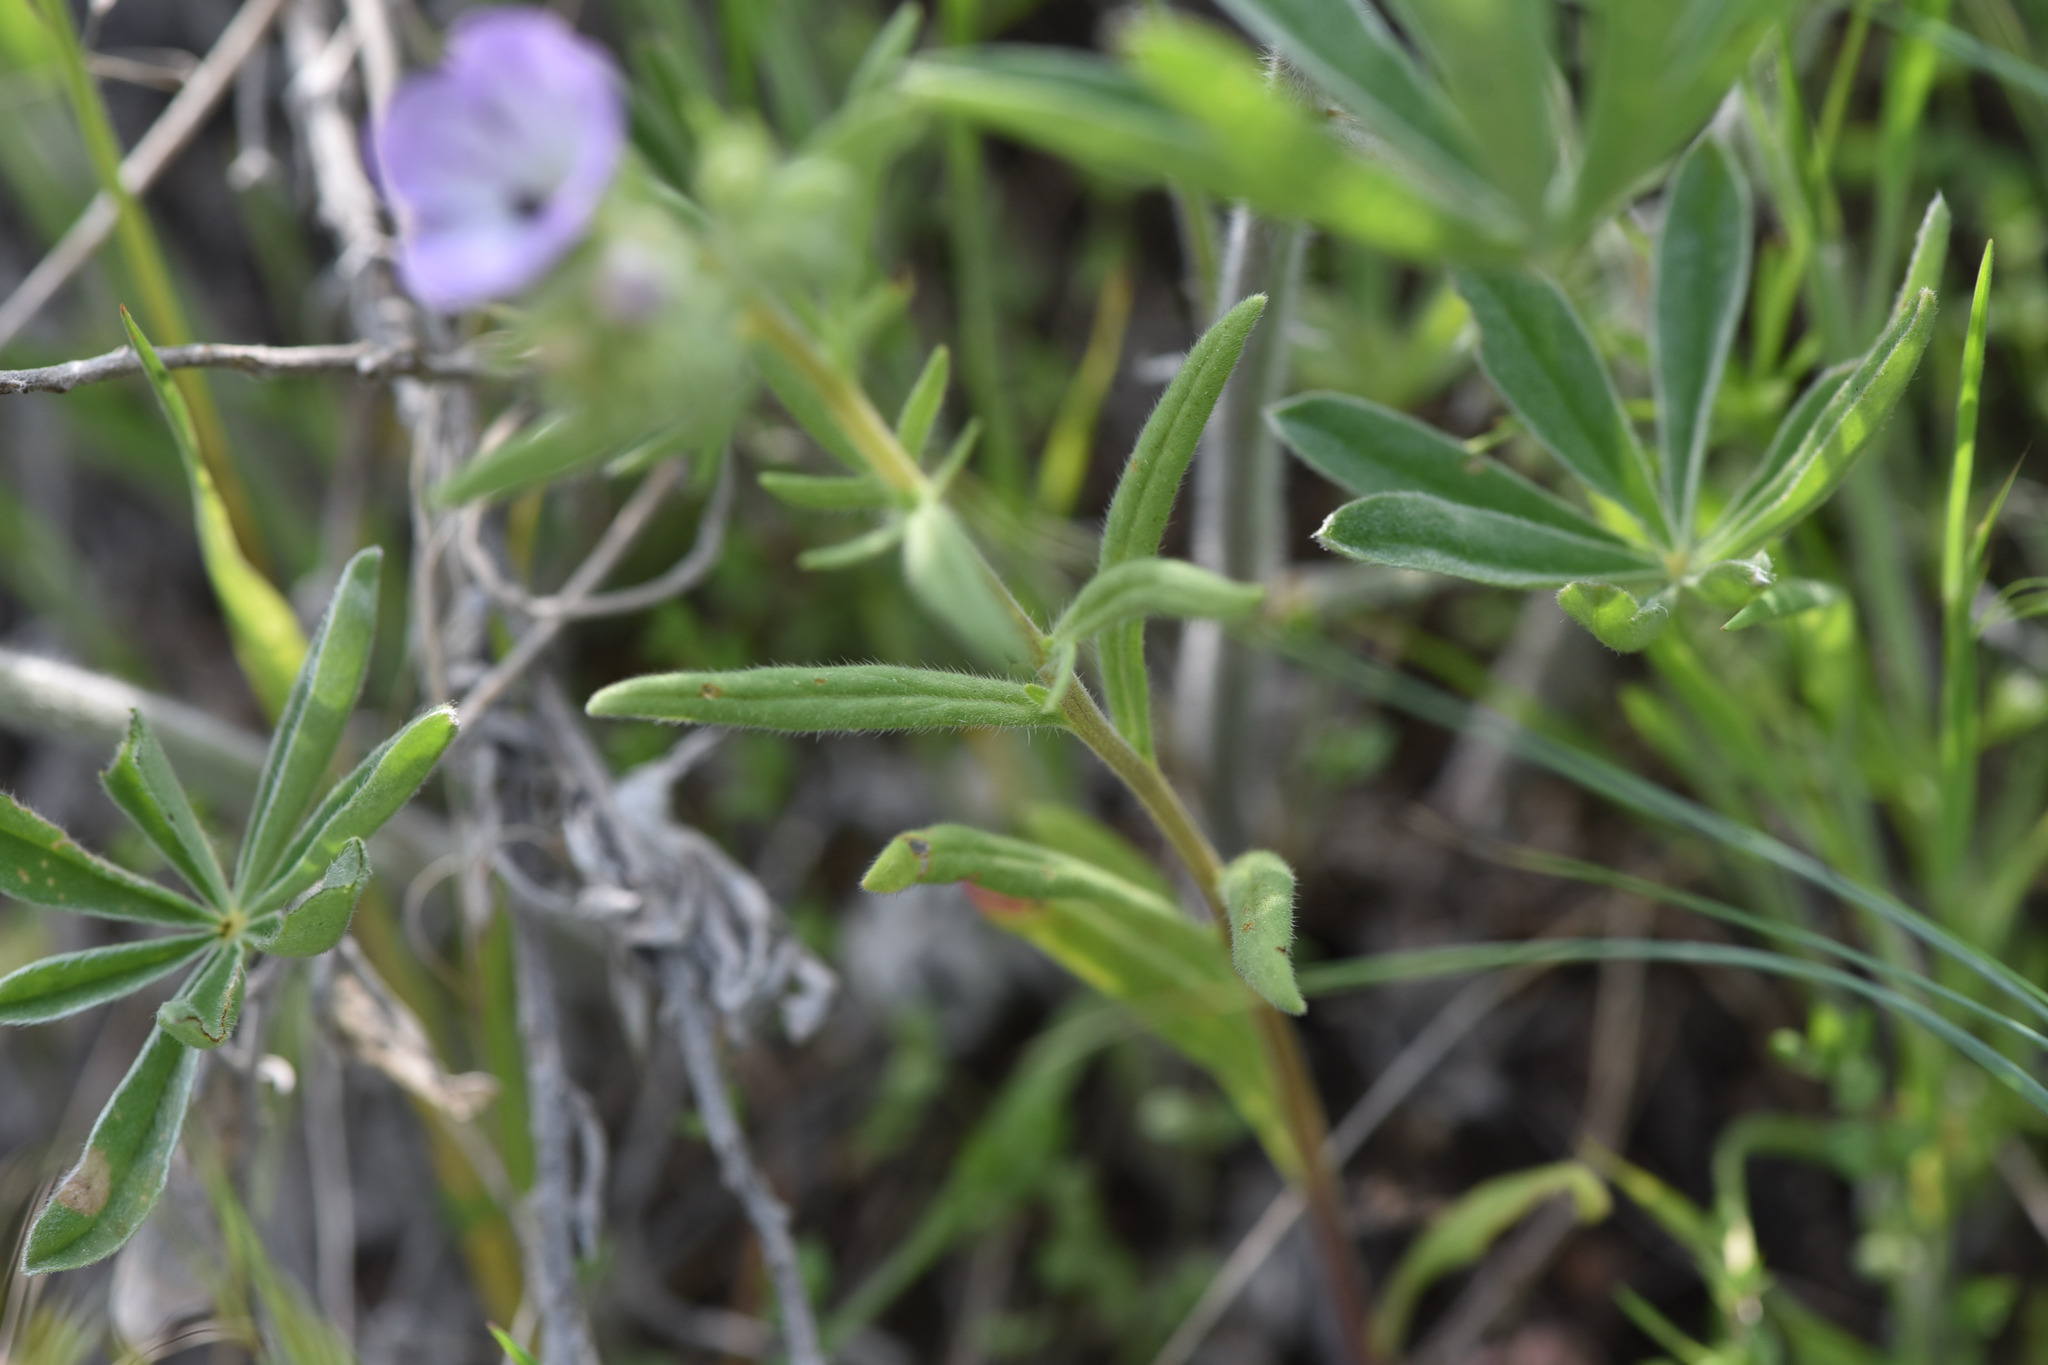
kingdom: Plantae
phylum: Tracheophyta
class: Magnoliopsida
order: Boraginales
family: Hydrophyllaceae
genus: Phacelia
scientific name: Phacelia linearis
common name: Linear-leaved phacelia
